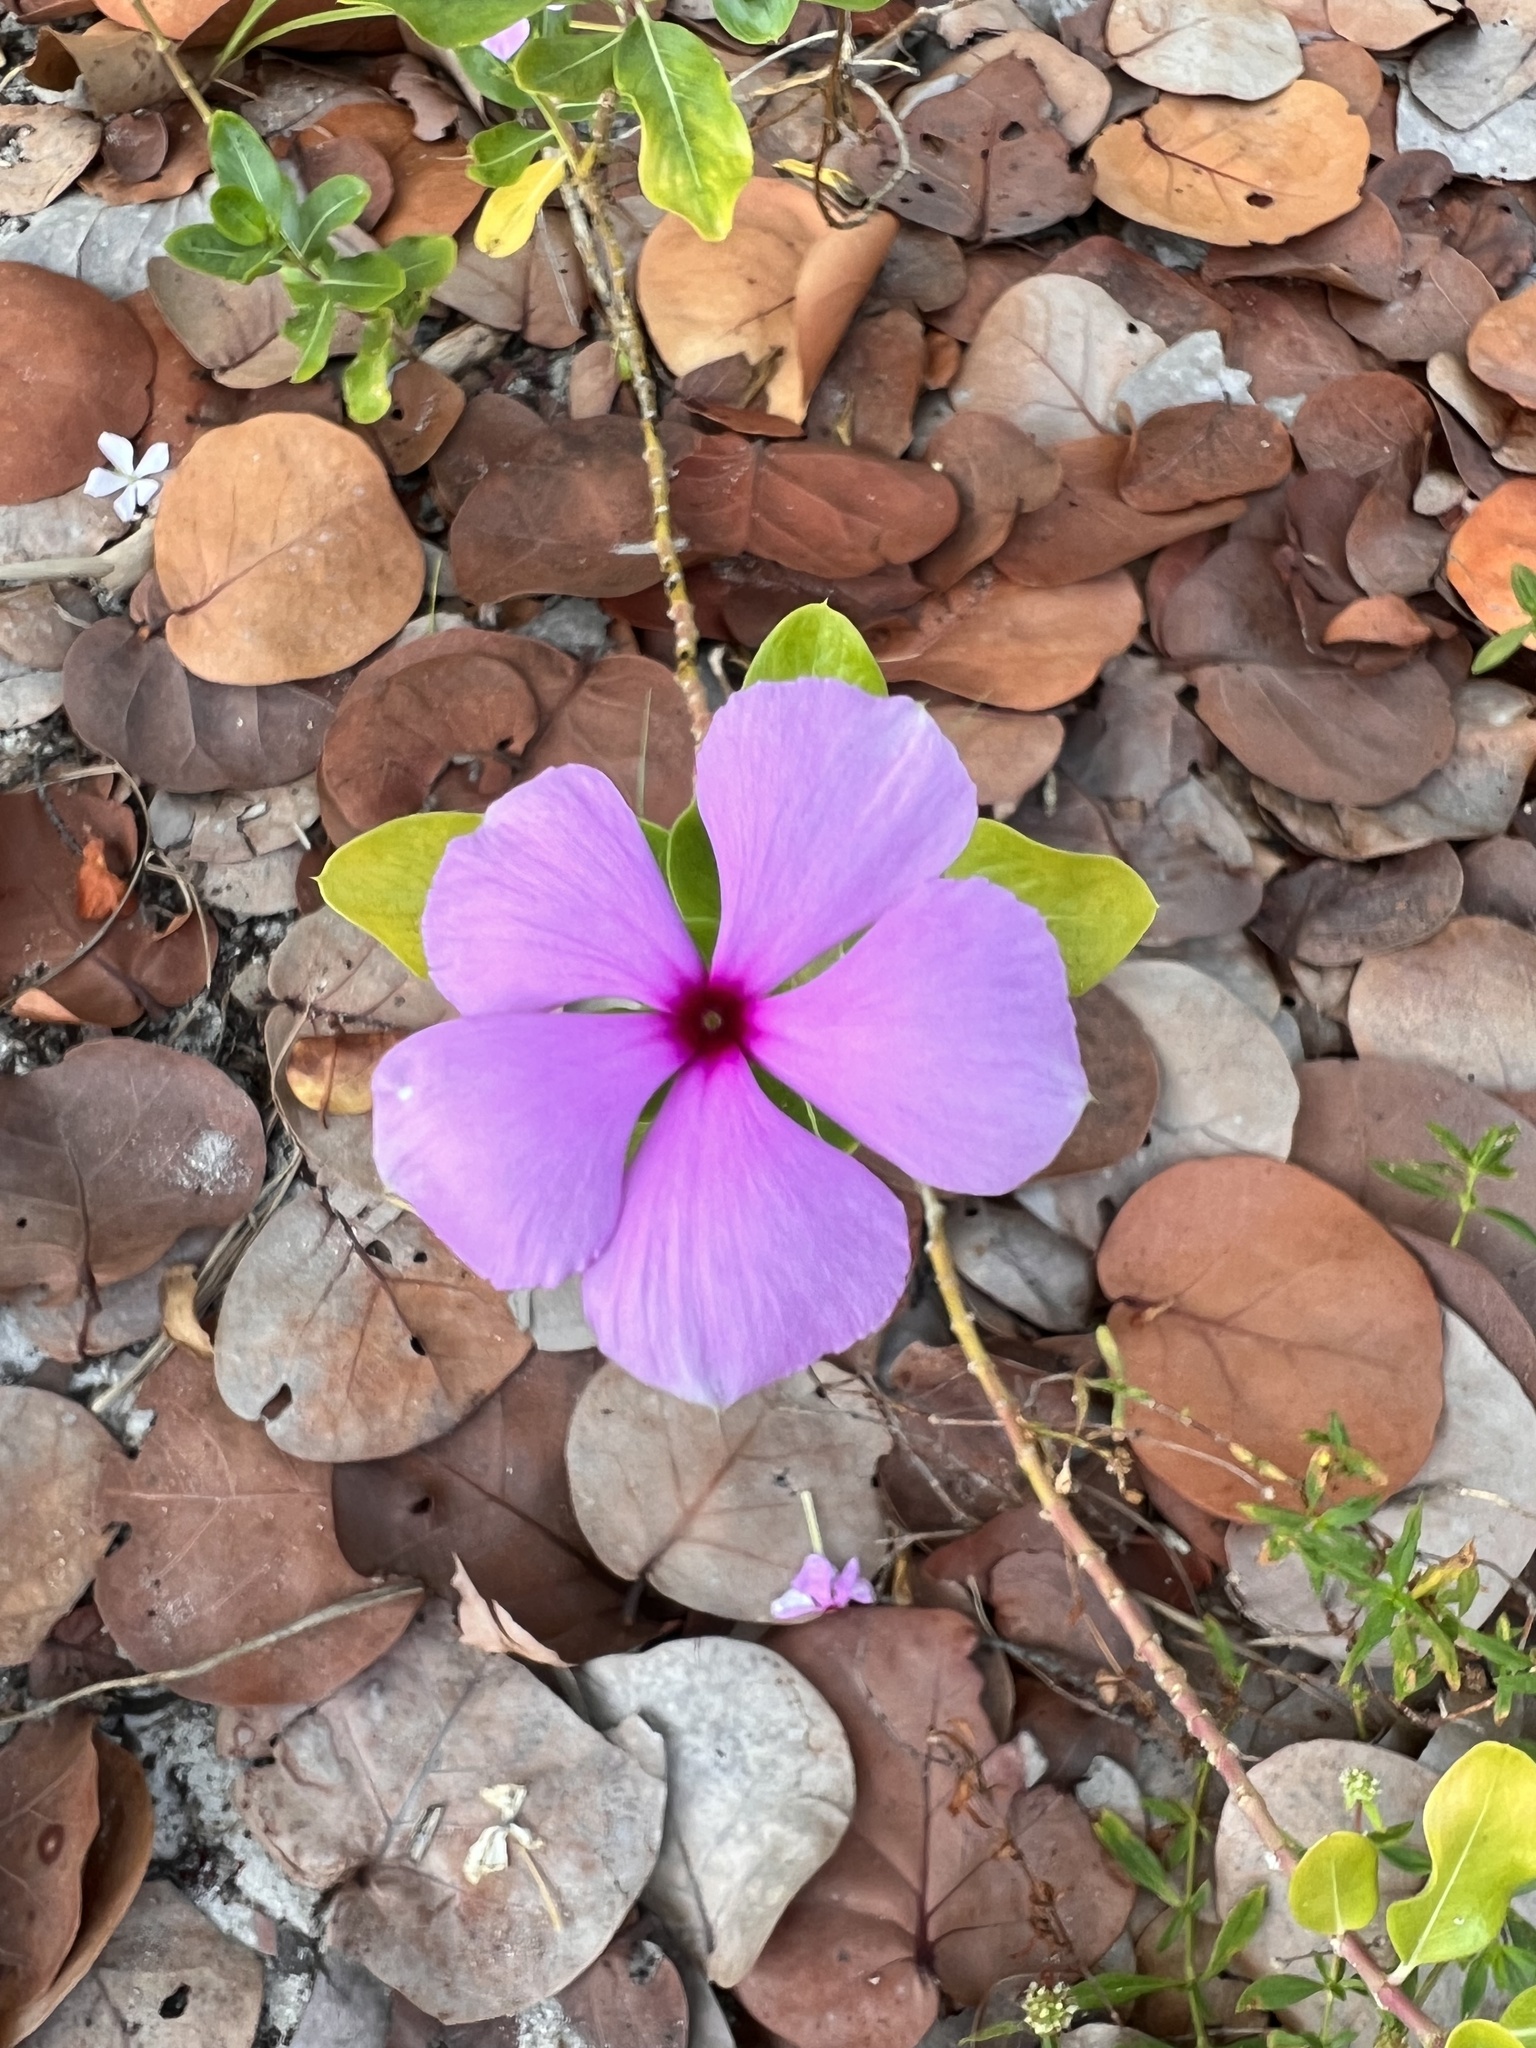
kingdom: Plantae
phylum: Tracheophyta
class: Magnoliopsida
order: Gentianales
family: Apocynaceae
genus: Catharanthus
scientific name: Catharanthus roseus
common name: Madagascar periwinkle
